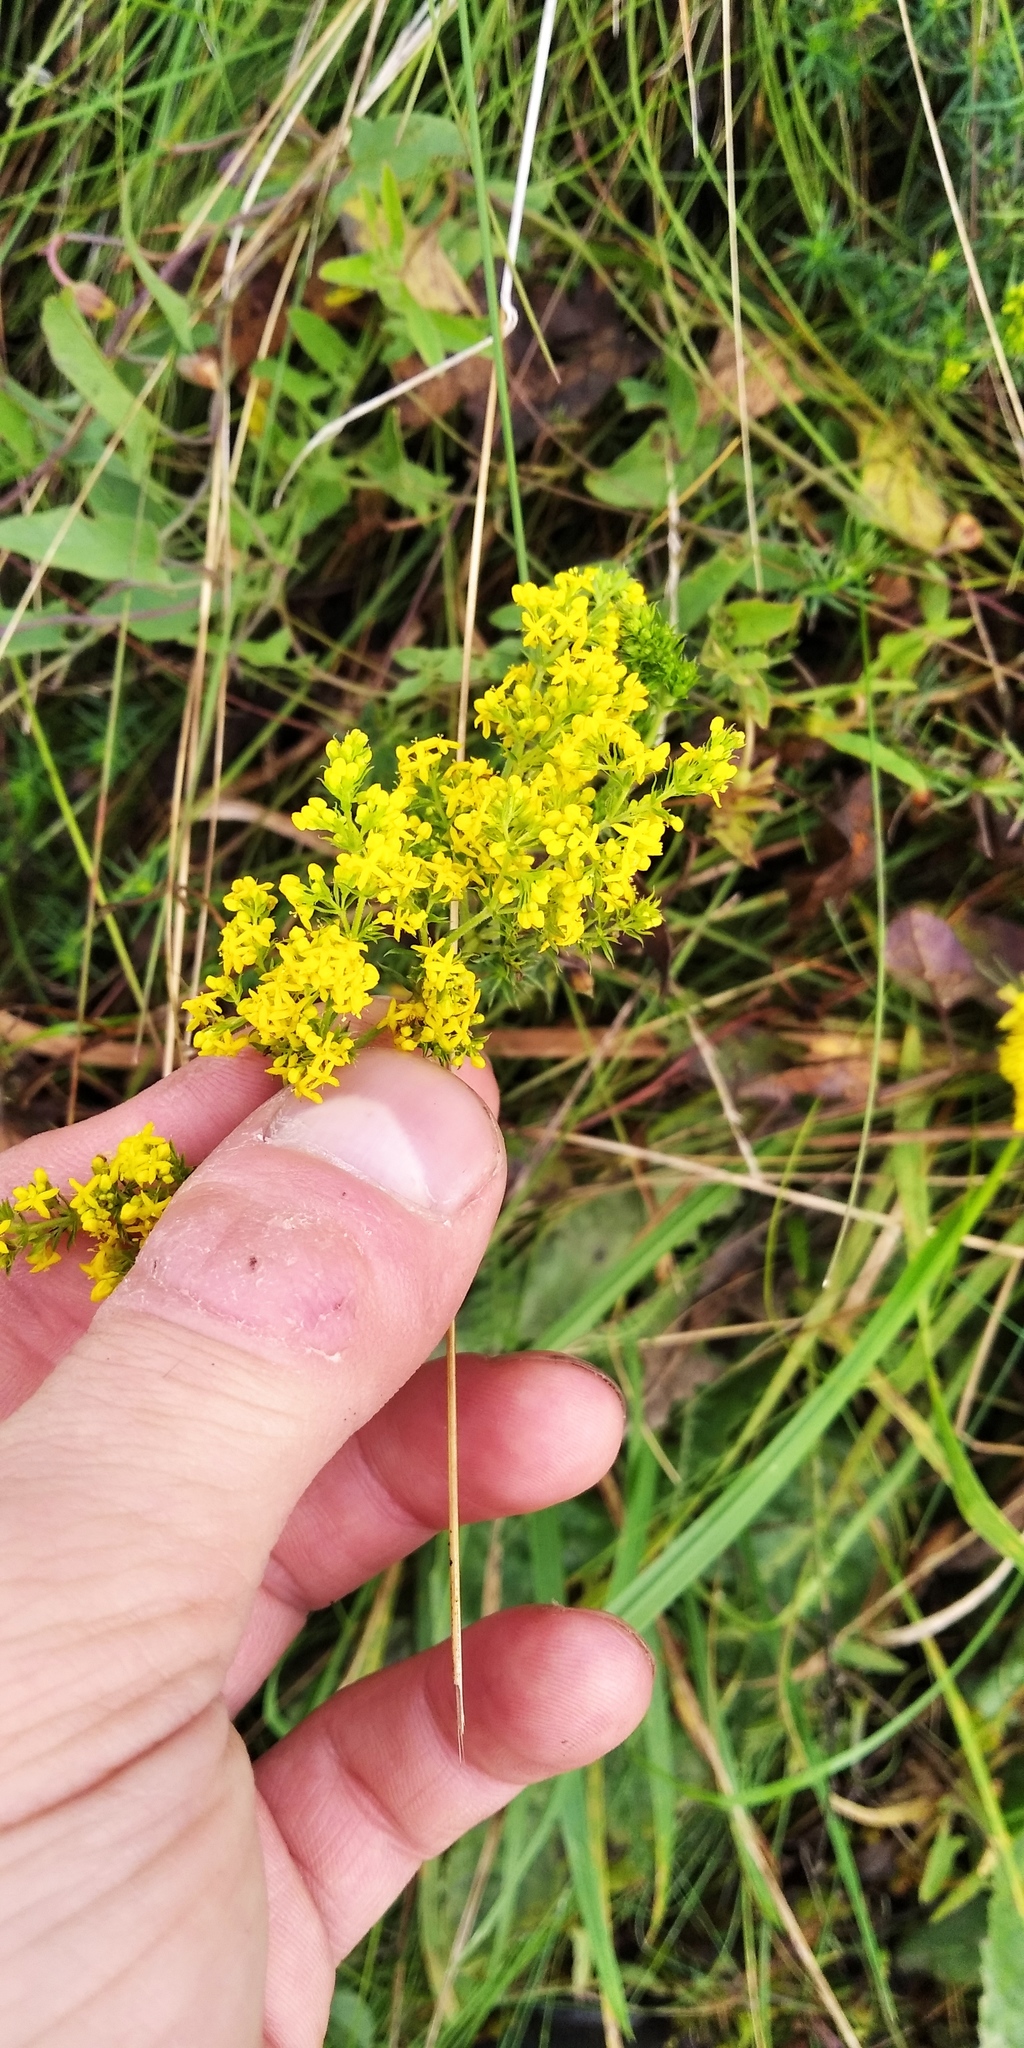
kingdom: Plantae
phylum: Tracheophyta
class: Magnoliopsida
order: Gentianales
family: Rubiaceae
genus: Galium
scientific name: Galium verum
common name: Lady's bedstraw
